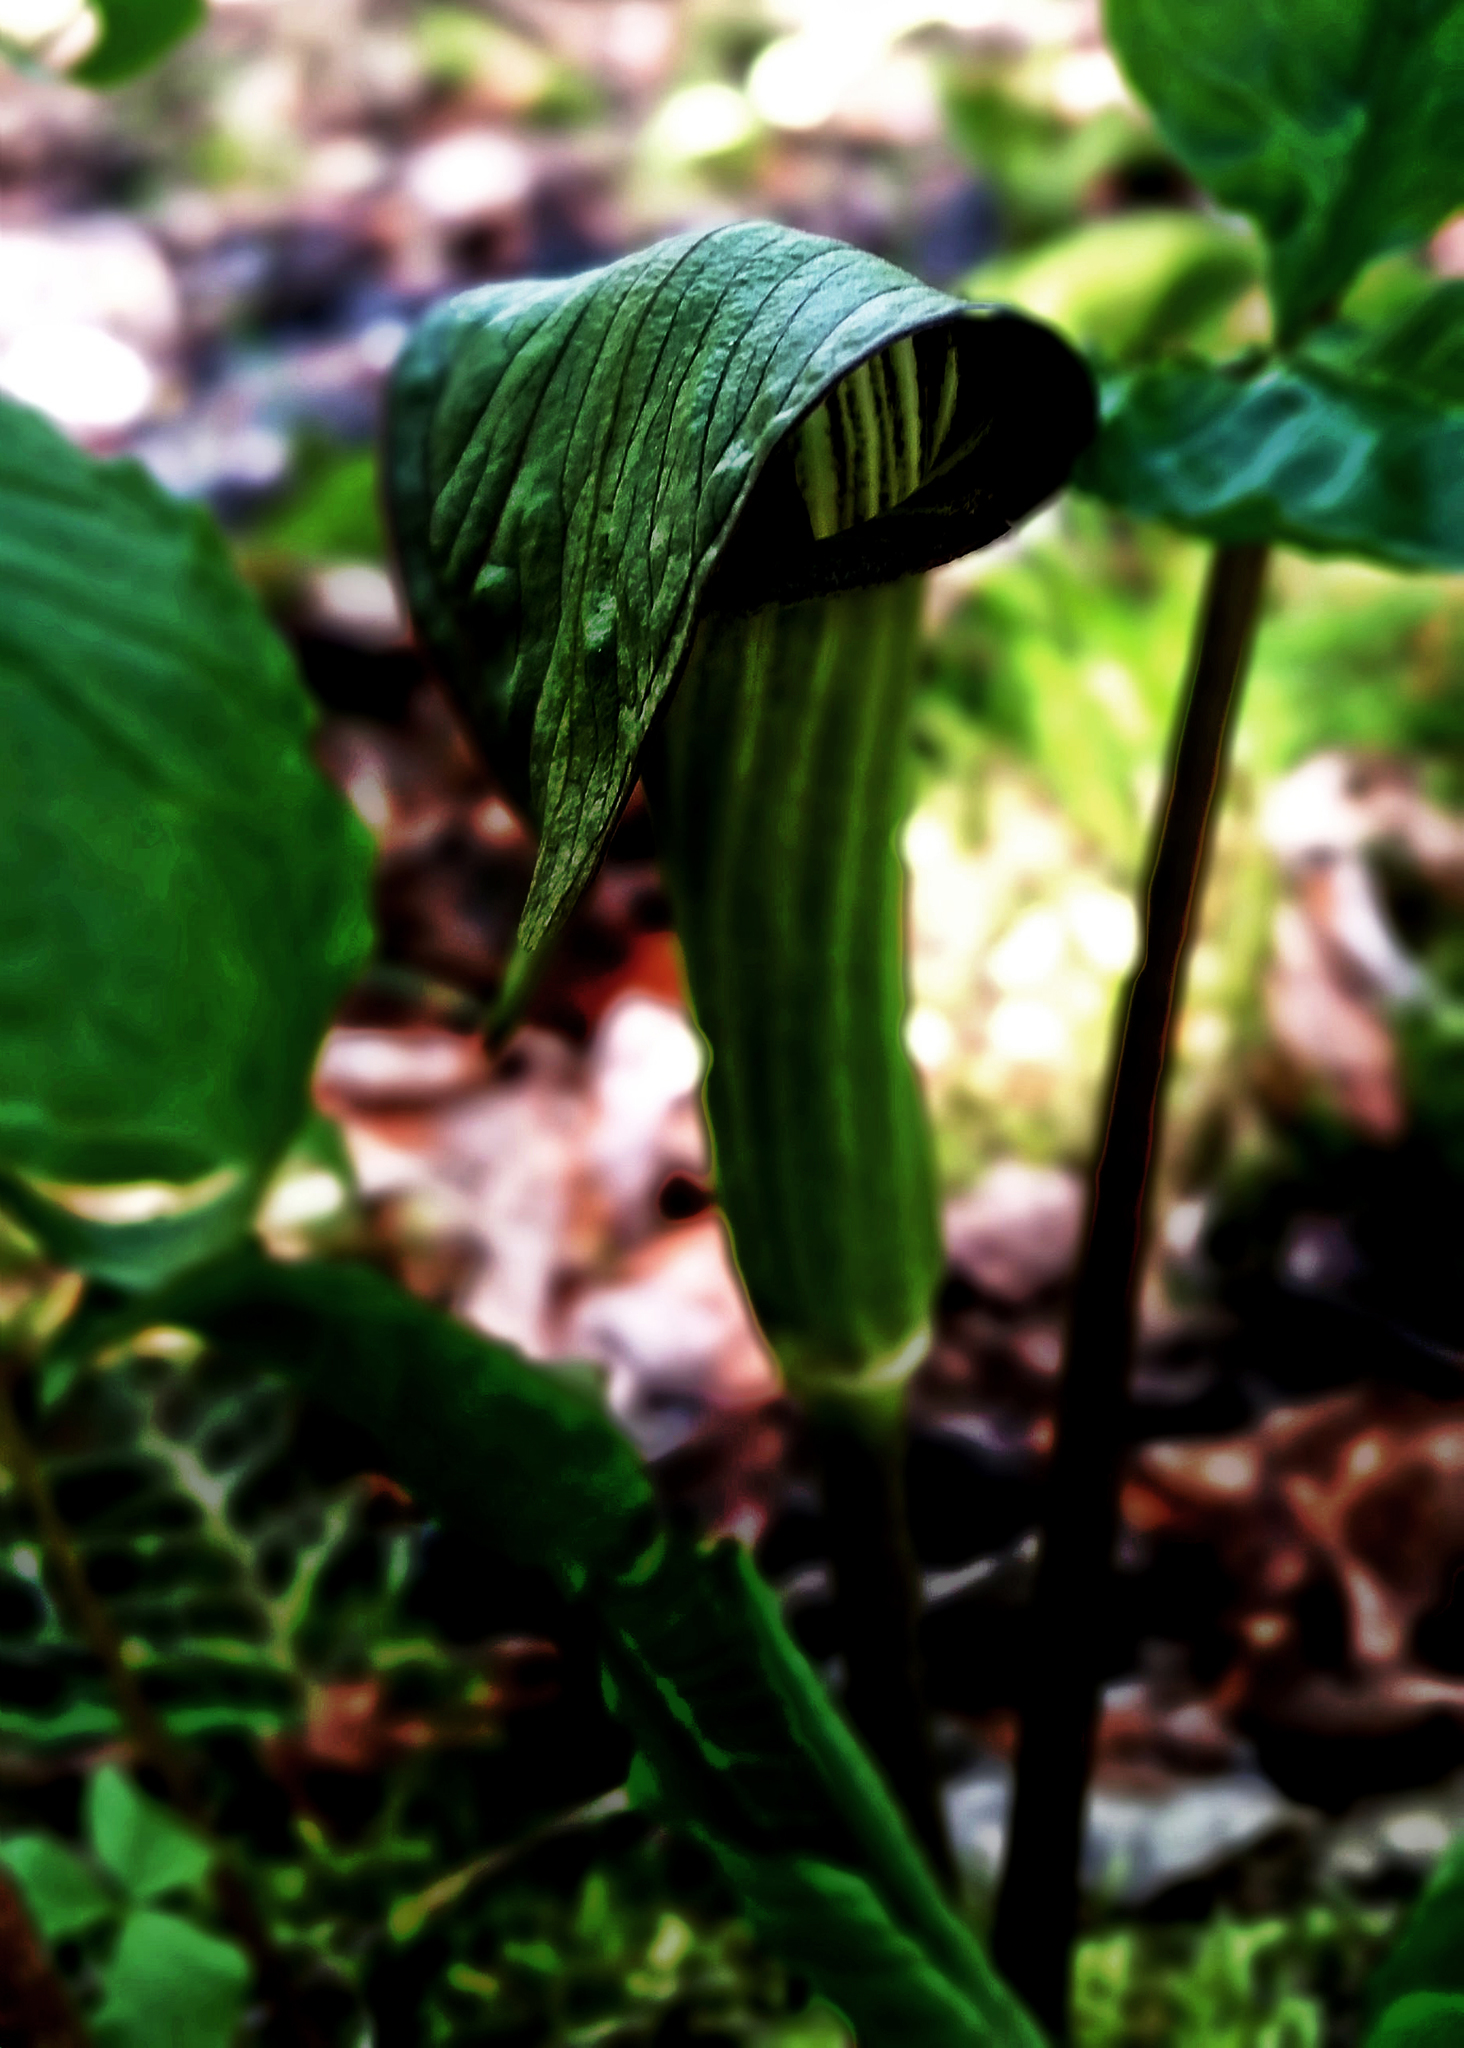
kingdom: Plantae
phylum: Tracheophyta
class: Liliopsida
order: Alismatales
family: Araceae
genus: Arisaema
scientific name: Arisaema triphyllum
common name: Jack-in-the-pulpit
